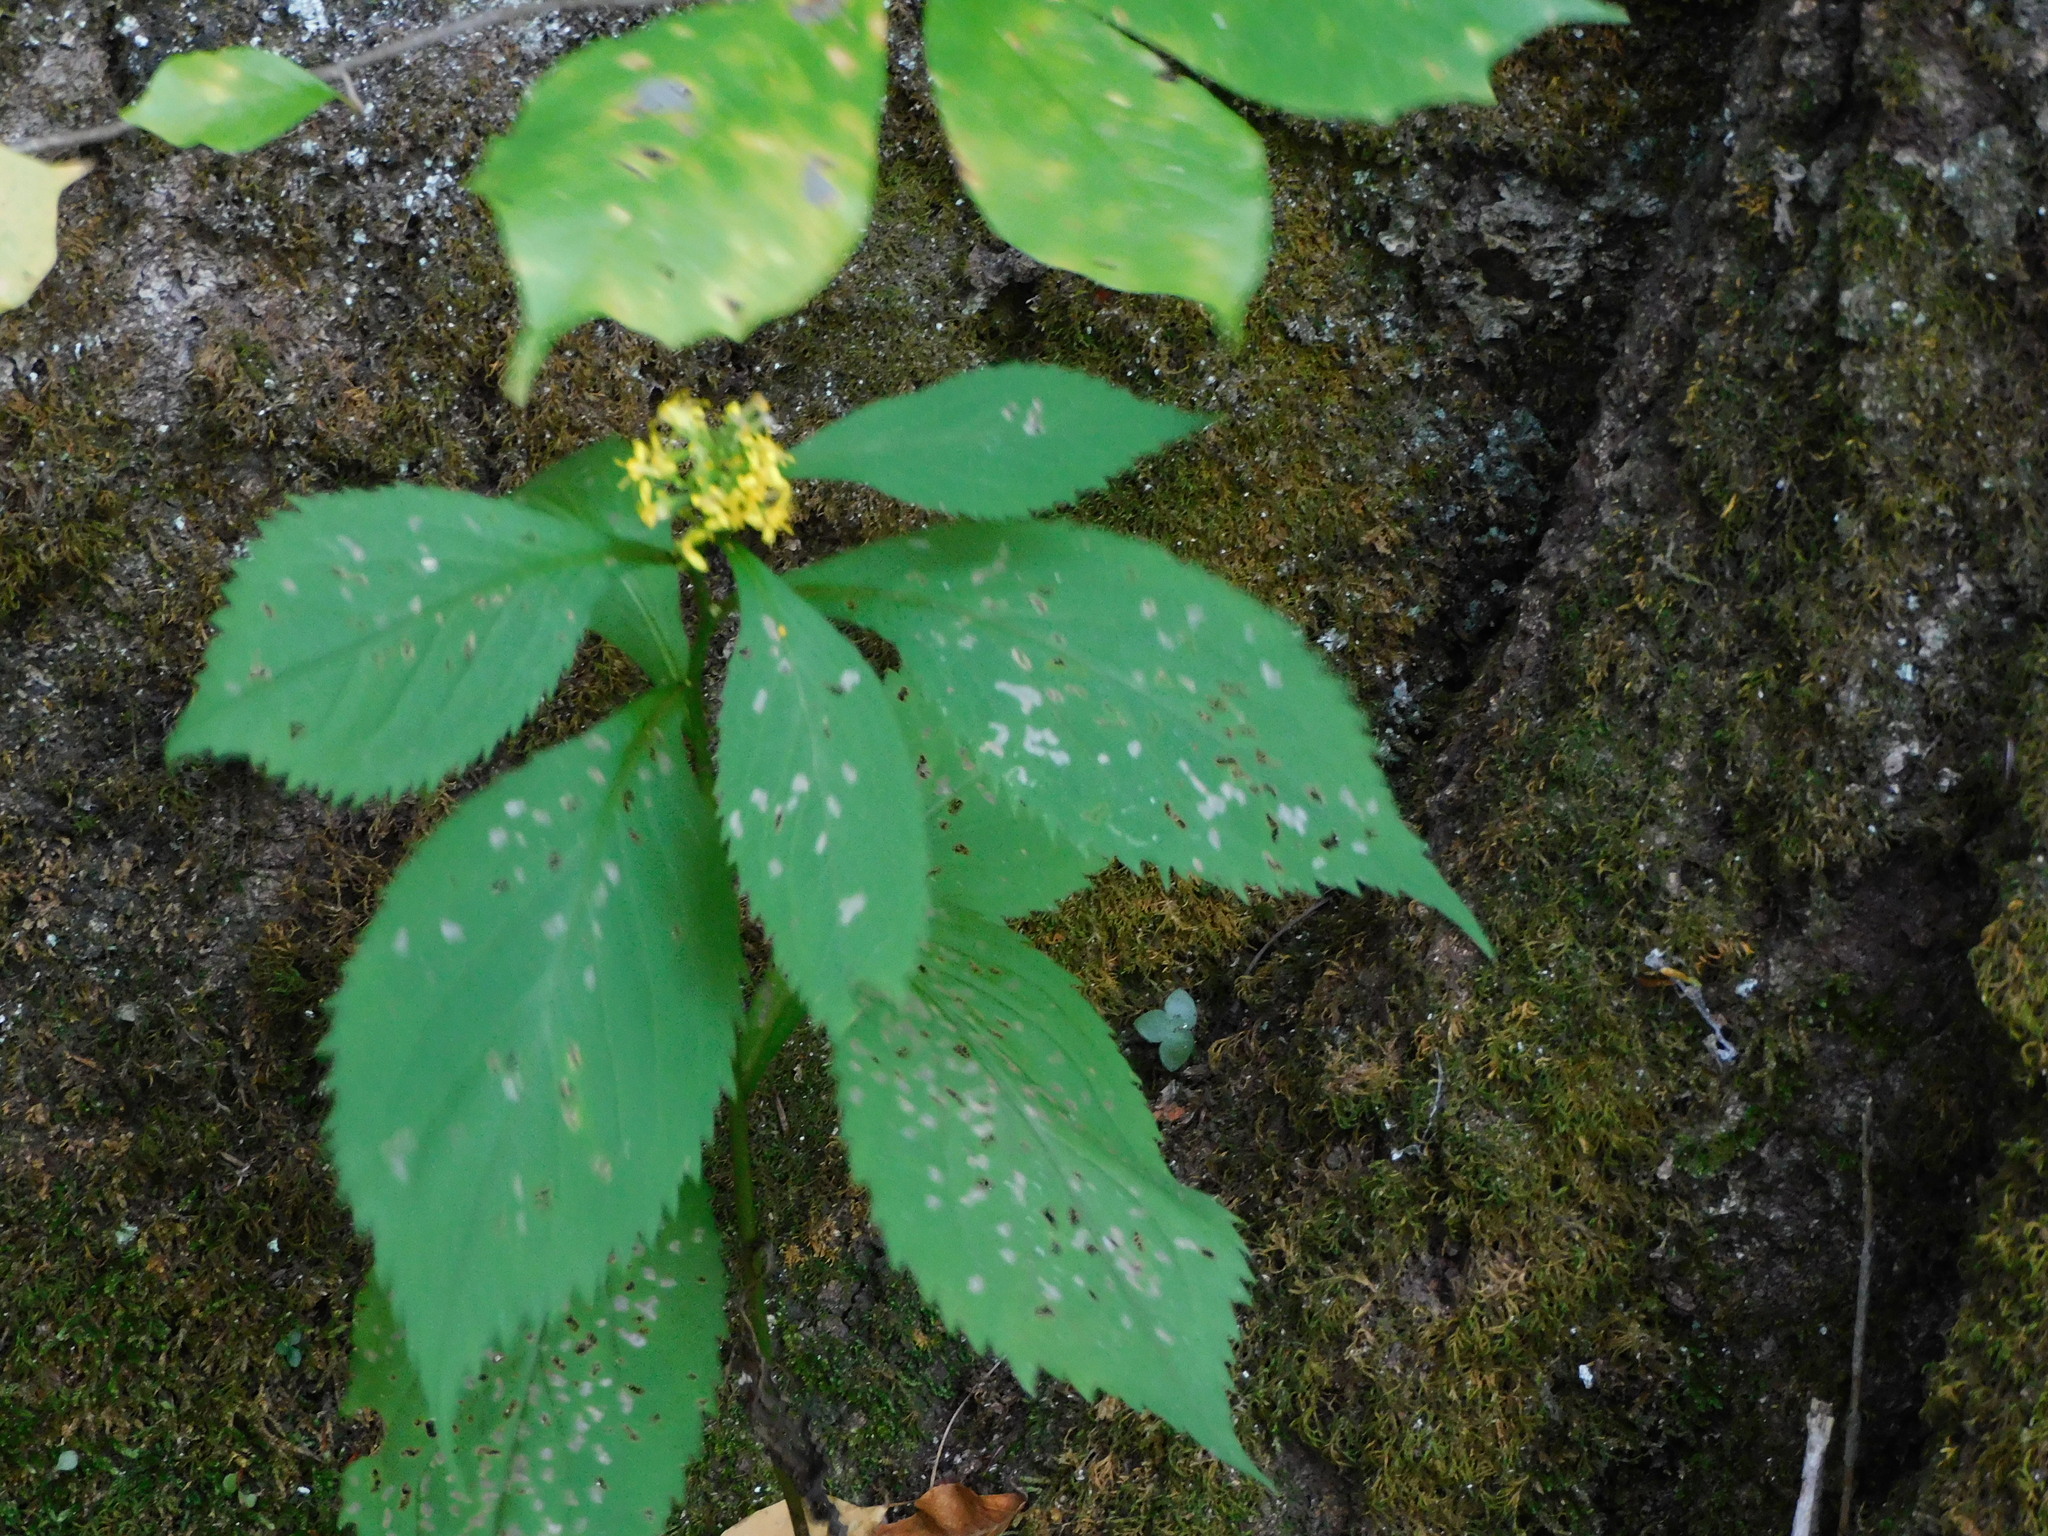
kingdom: Plantae
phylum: Tracheophyta
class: Magnoliopsida
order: Asterales
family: Asteraceae
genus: Solidago
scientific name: Solidago flexicaulis
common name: Zig-zag goldenrod
